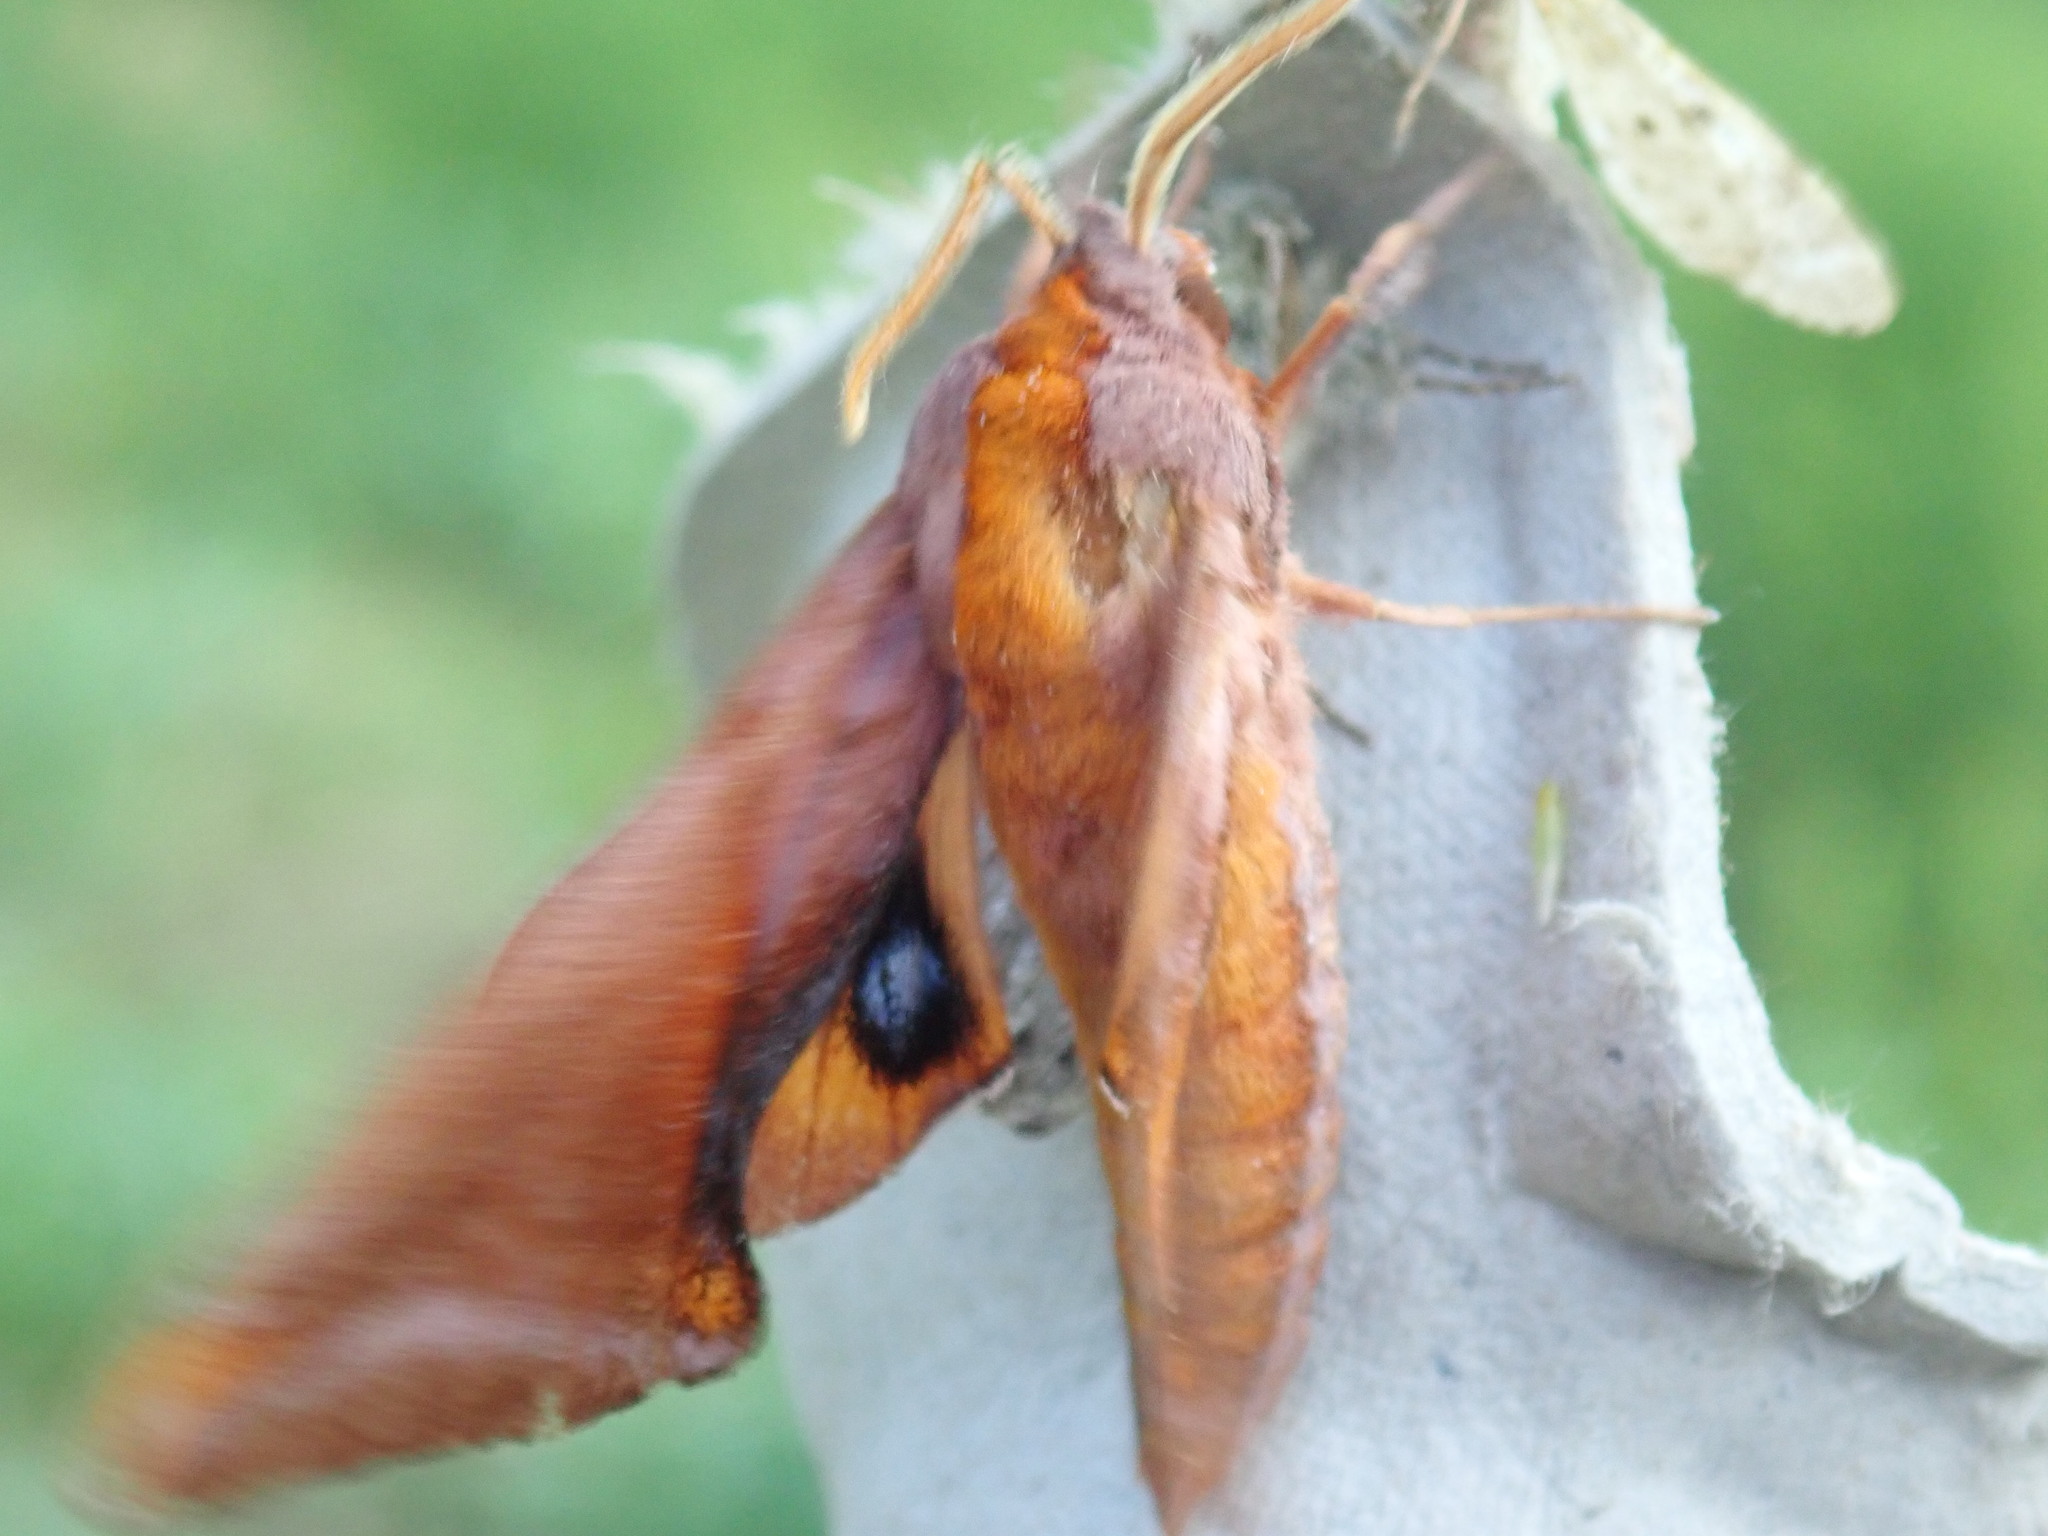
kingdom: Animalia
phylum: Arthropoda
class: Insecta
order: Lepidoptera
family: Sphingidae
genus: Paonias
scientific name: Paonias astylus
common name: Huckleberry sphinx
